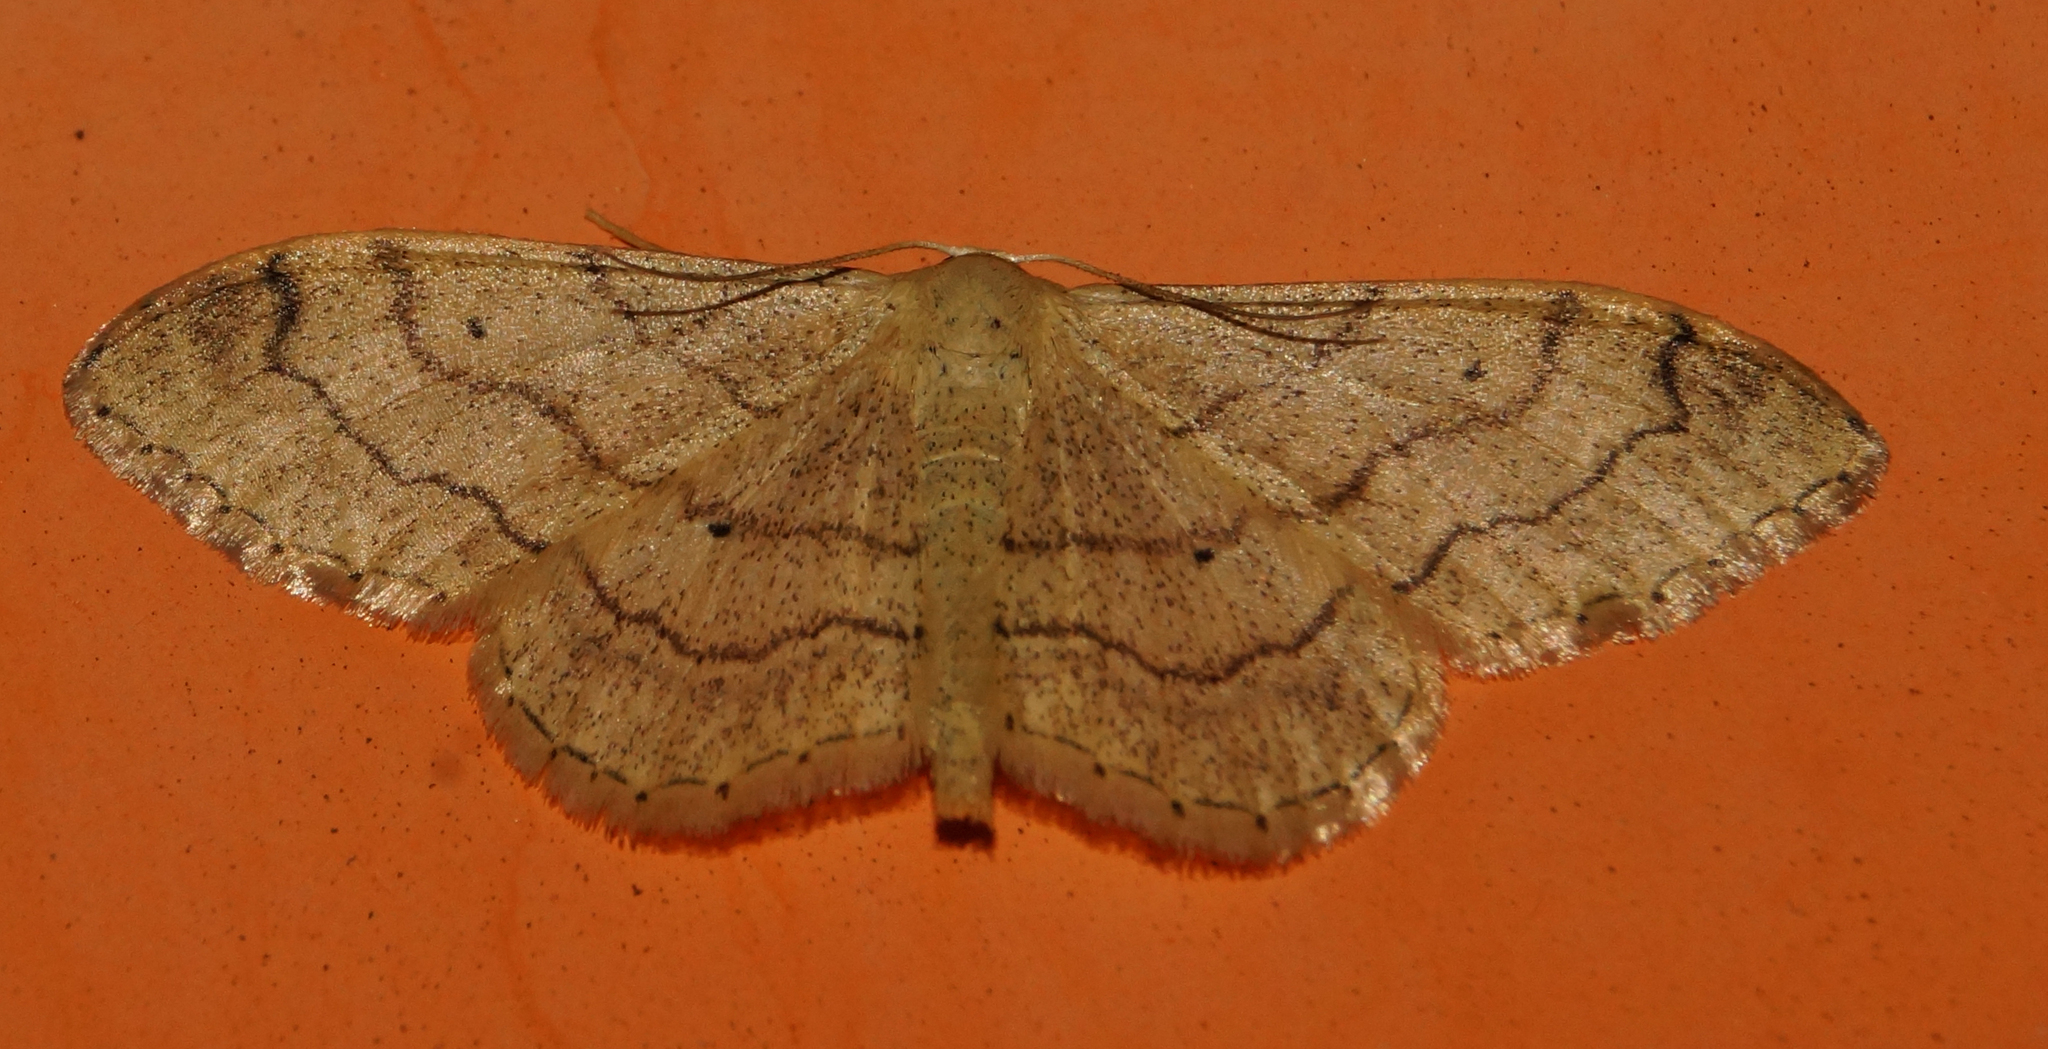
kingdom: Animalia
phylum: Arthropoda
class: Insecta
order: Lepidoptera
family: Geometridae
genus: Idaea
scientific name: Idaea aversata
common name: Riband wave
